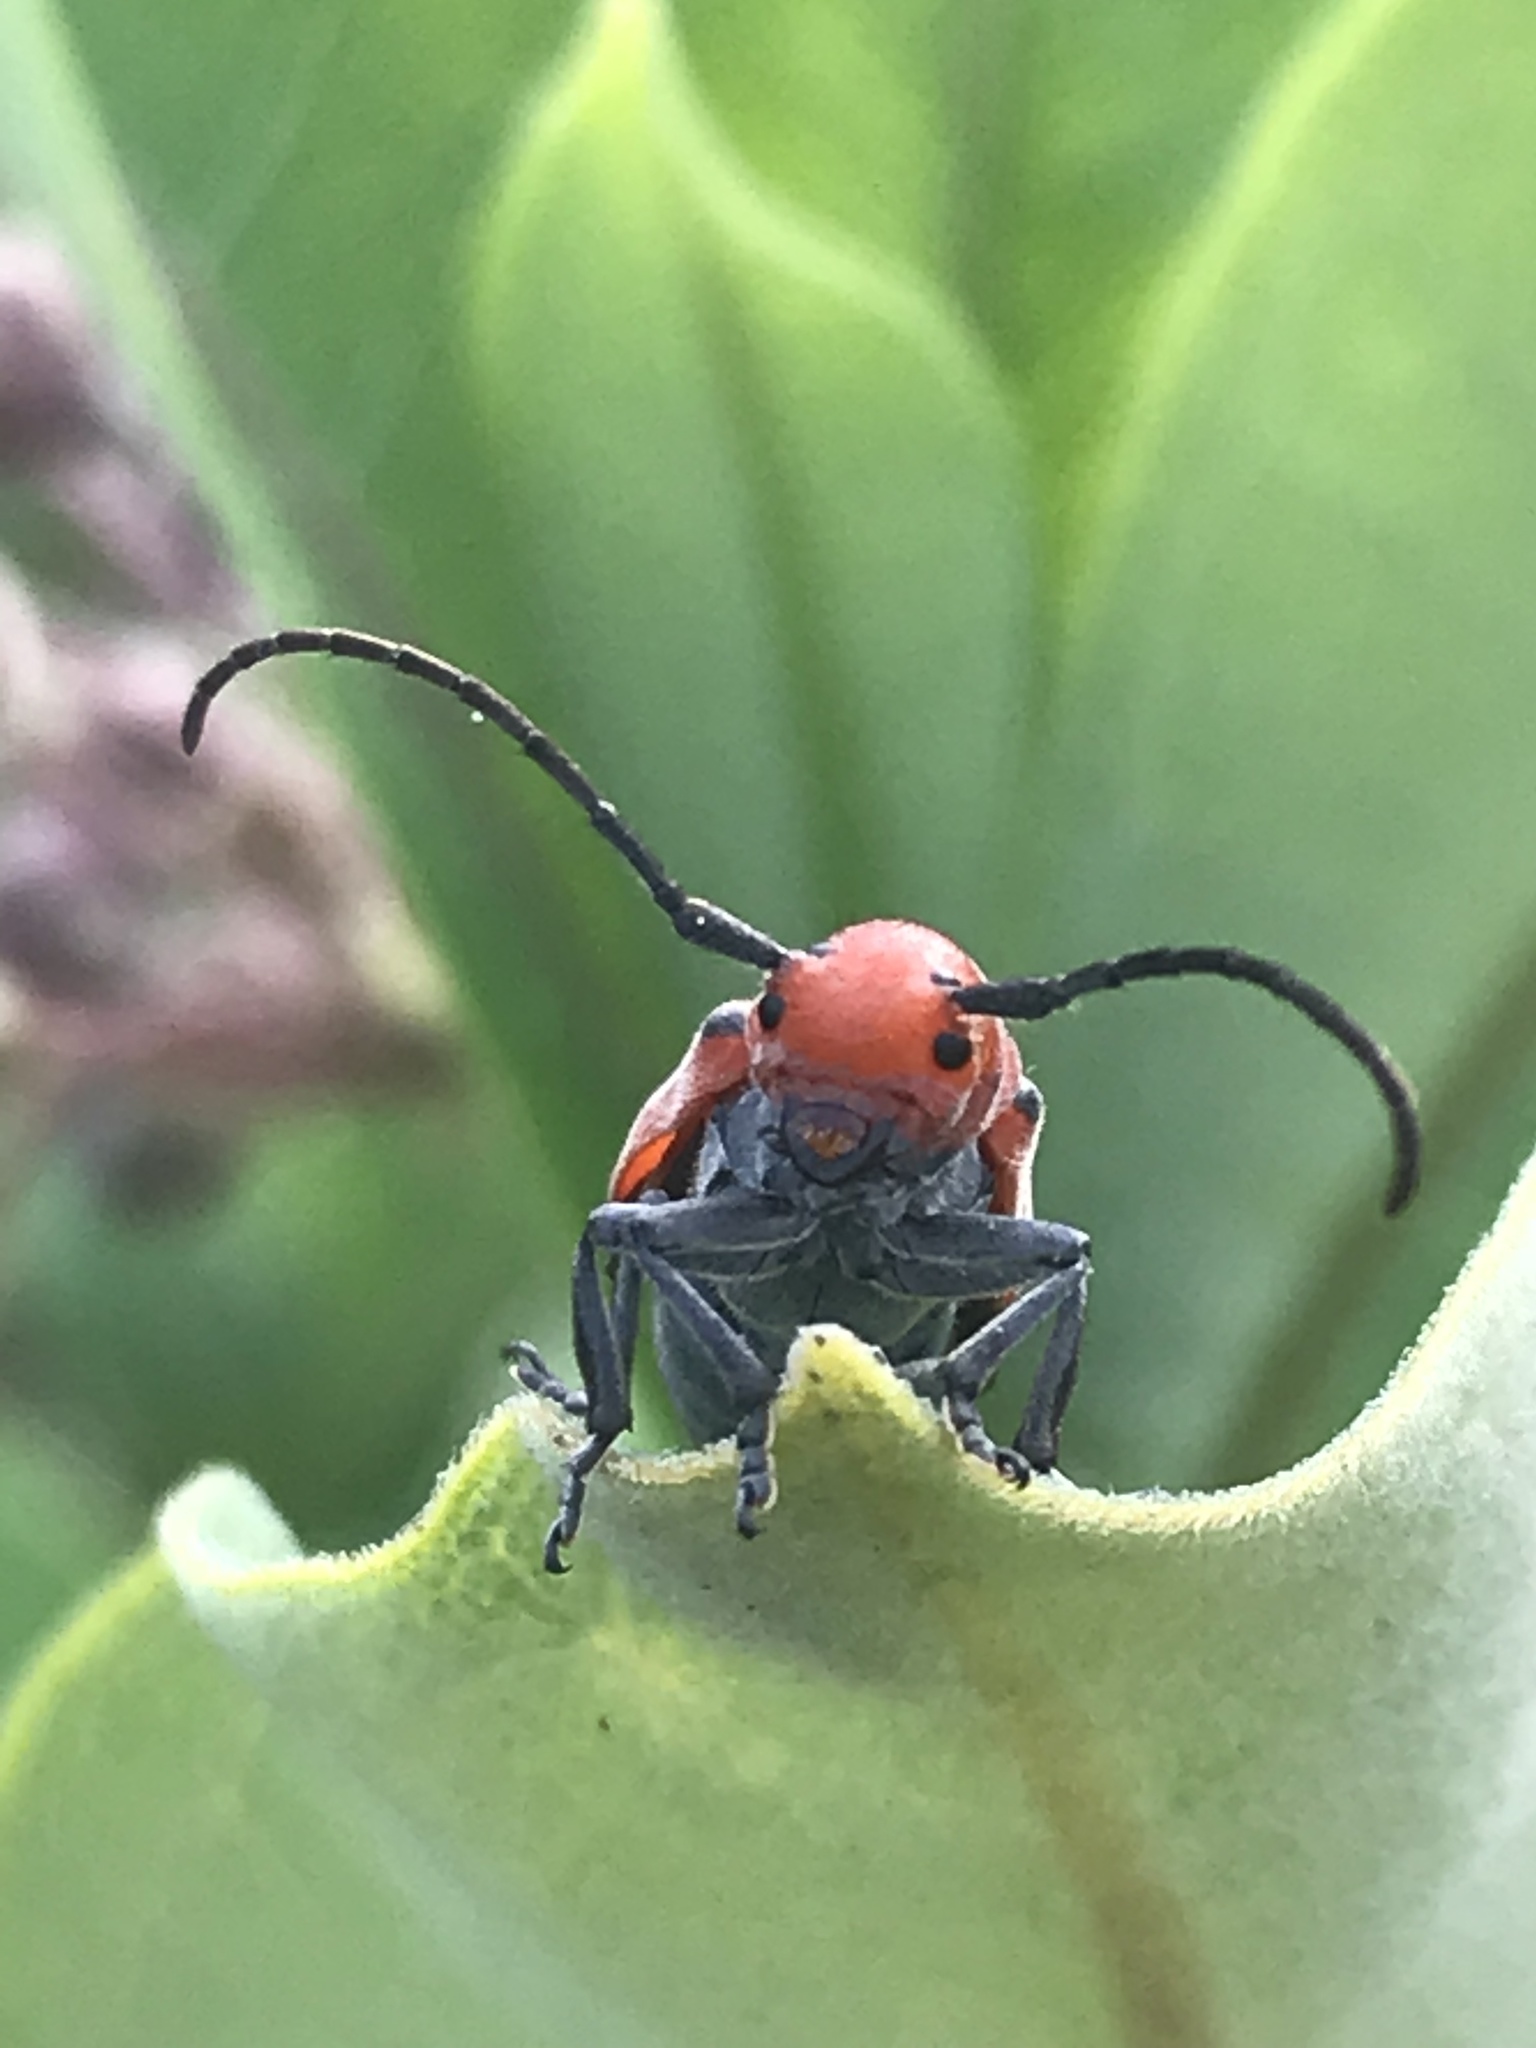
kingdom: Animalia
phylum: Arthropoda
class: Insecta
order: Coleoptera
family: Cerambycidae
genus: Tetraopes
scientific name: Tetraopes tetrophthalmus
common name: Red milkweed beetle
